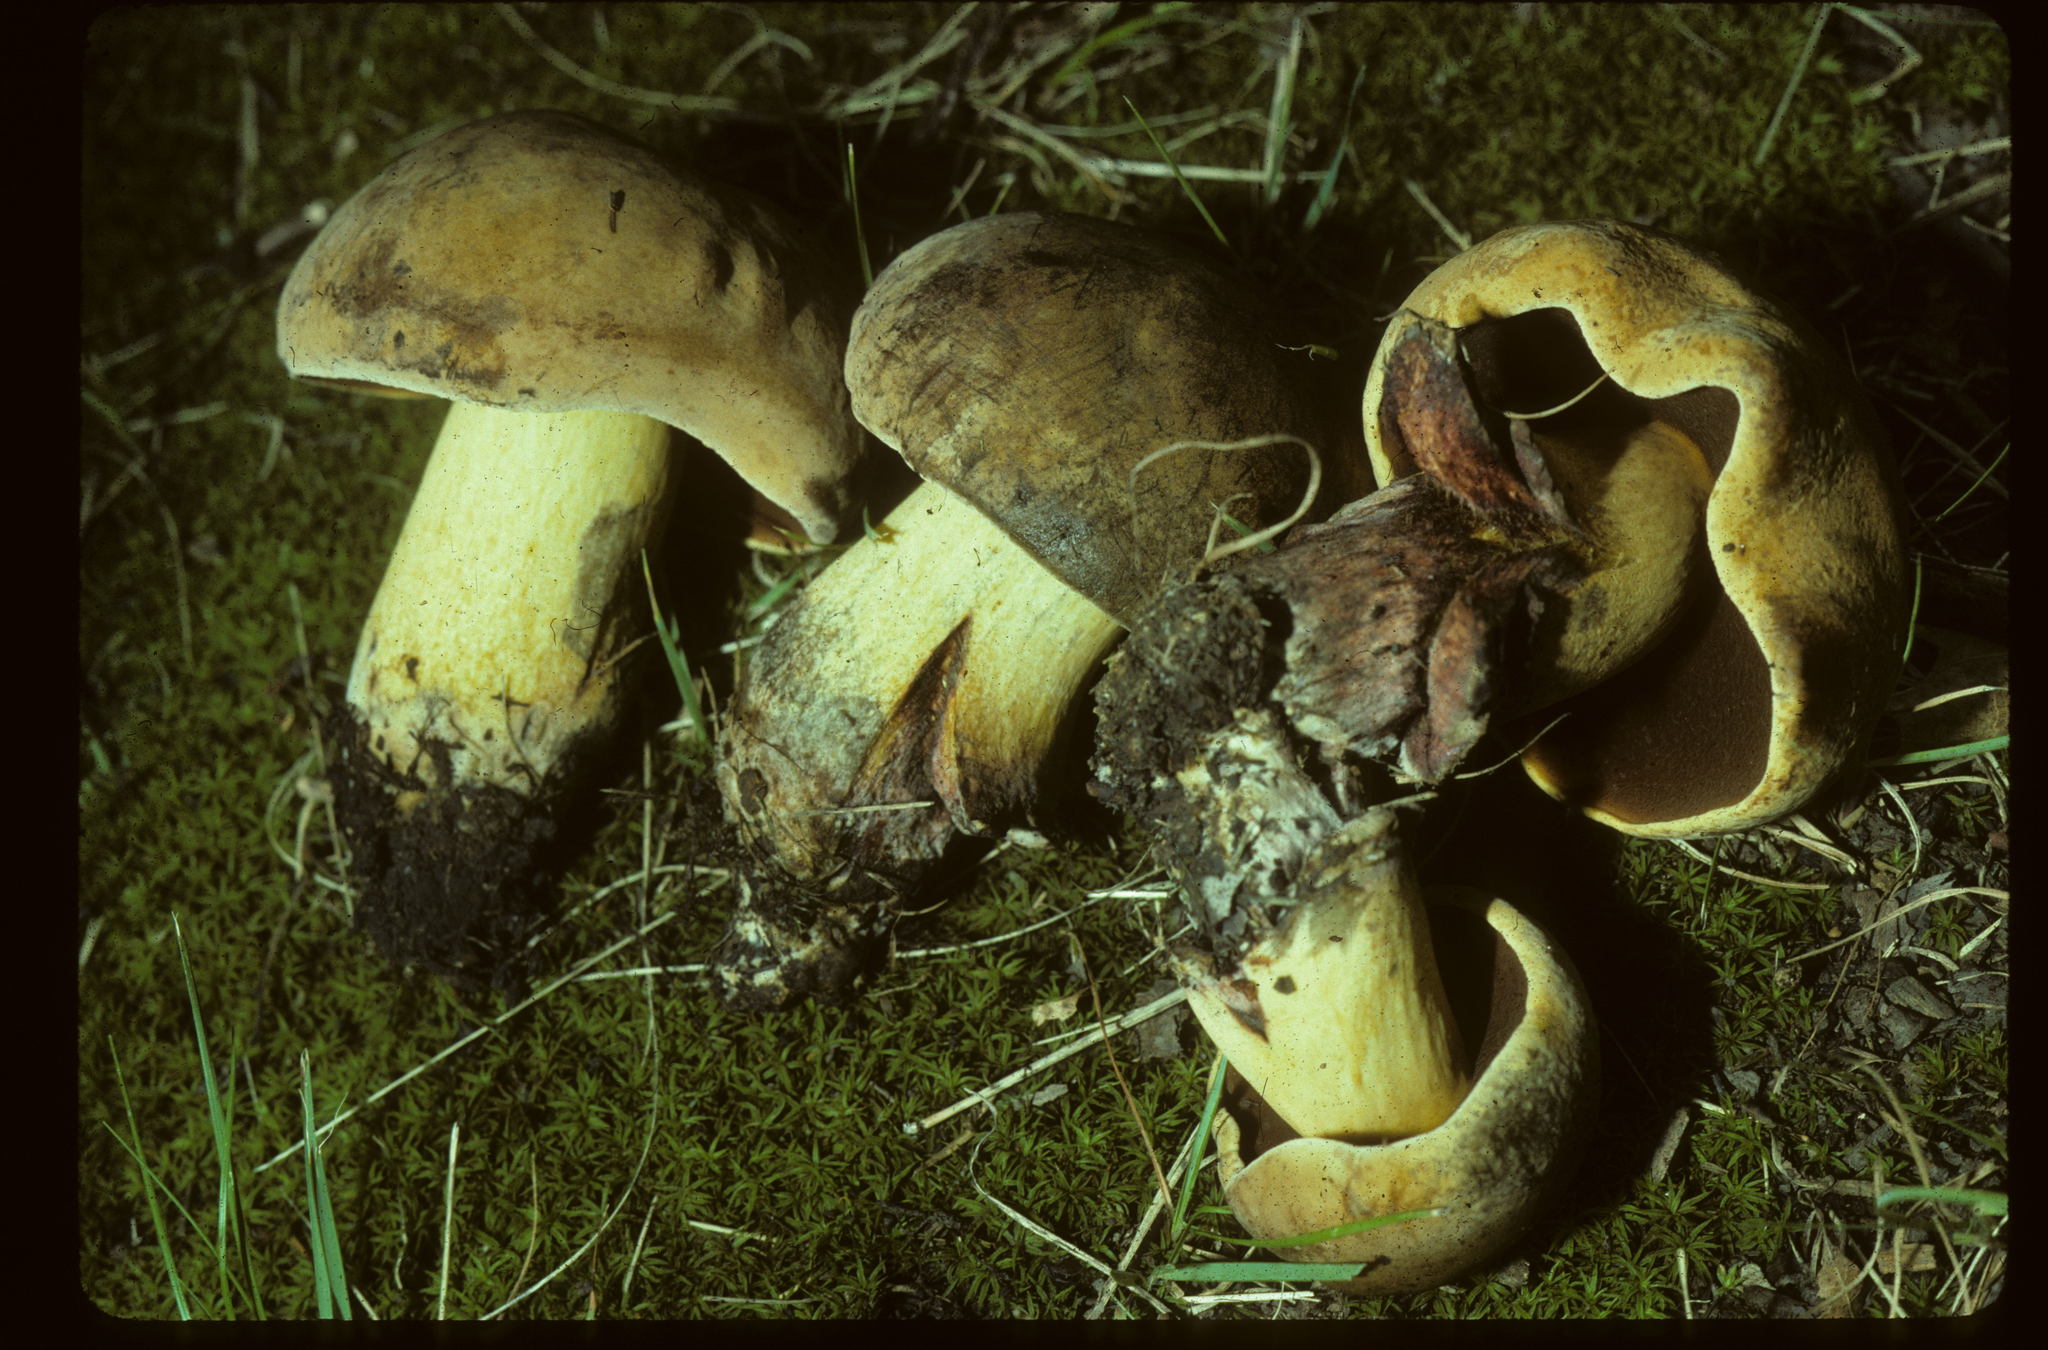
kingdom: Fungi
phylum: Basidiomycota
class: Agaricomycetes
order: Boletales
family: Boletaceae
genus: Boletus
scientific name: Boletus subgraveolens
